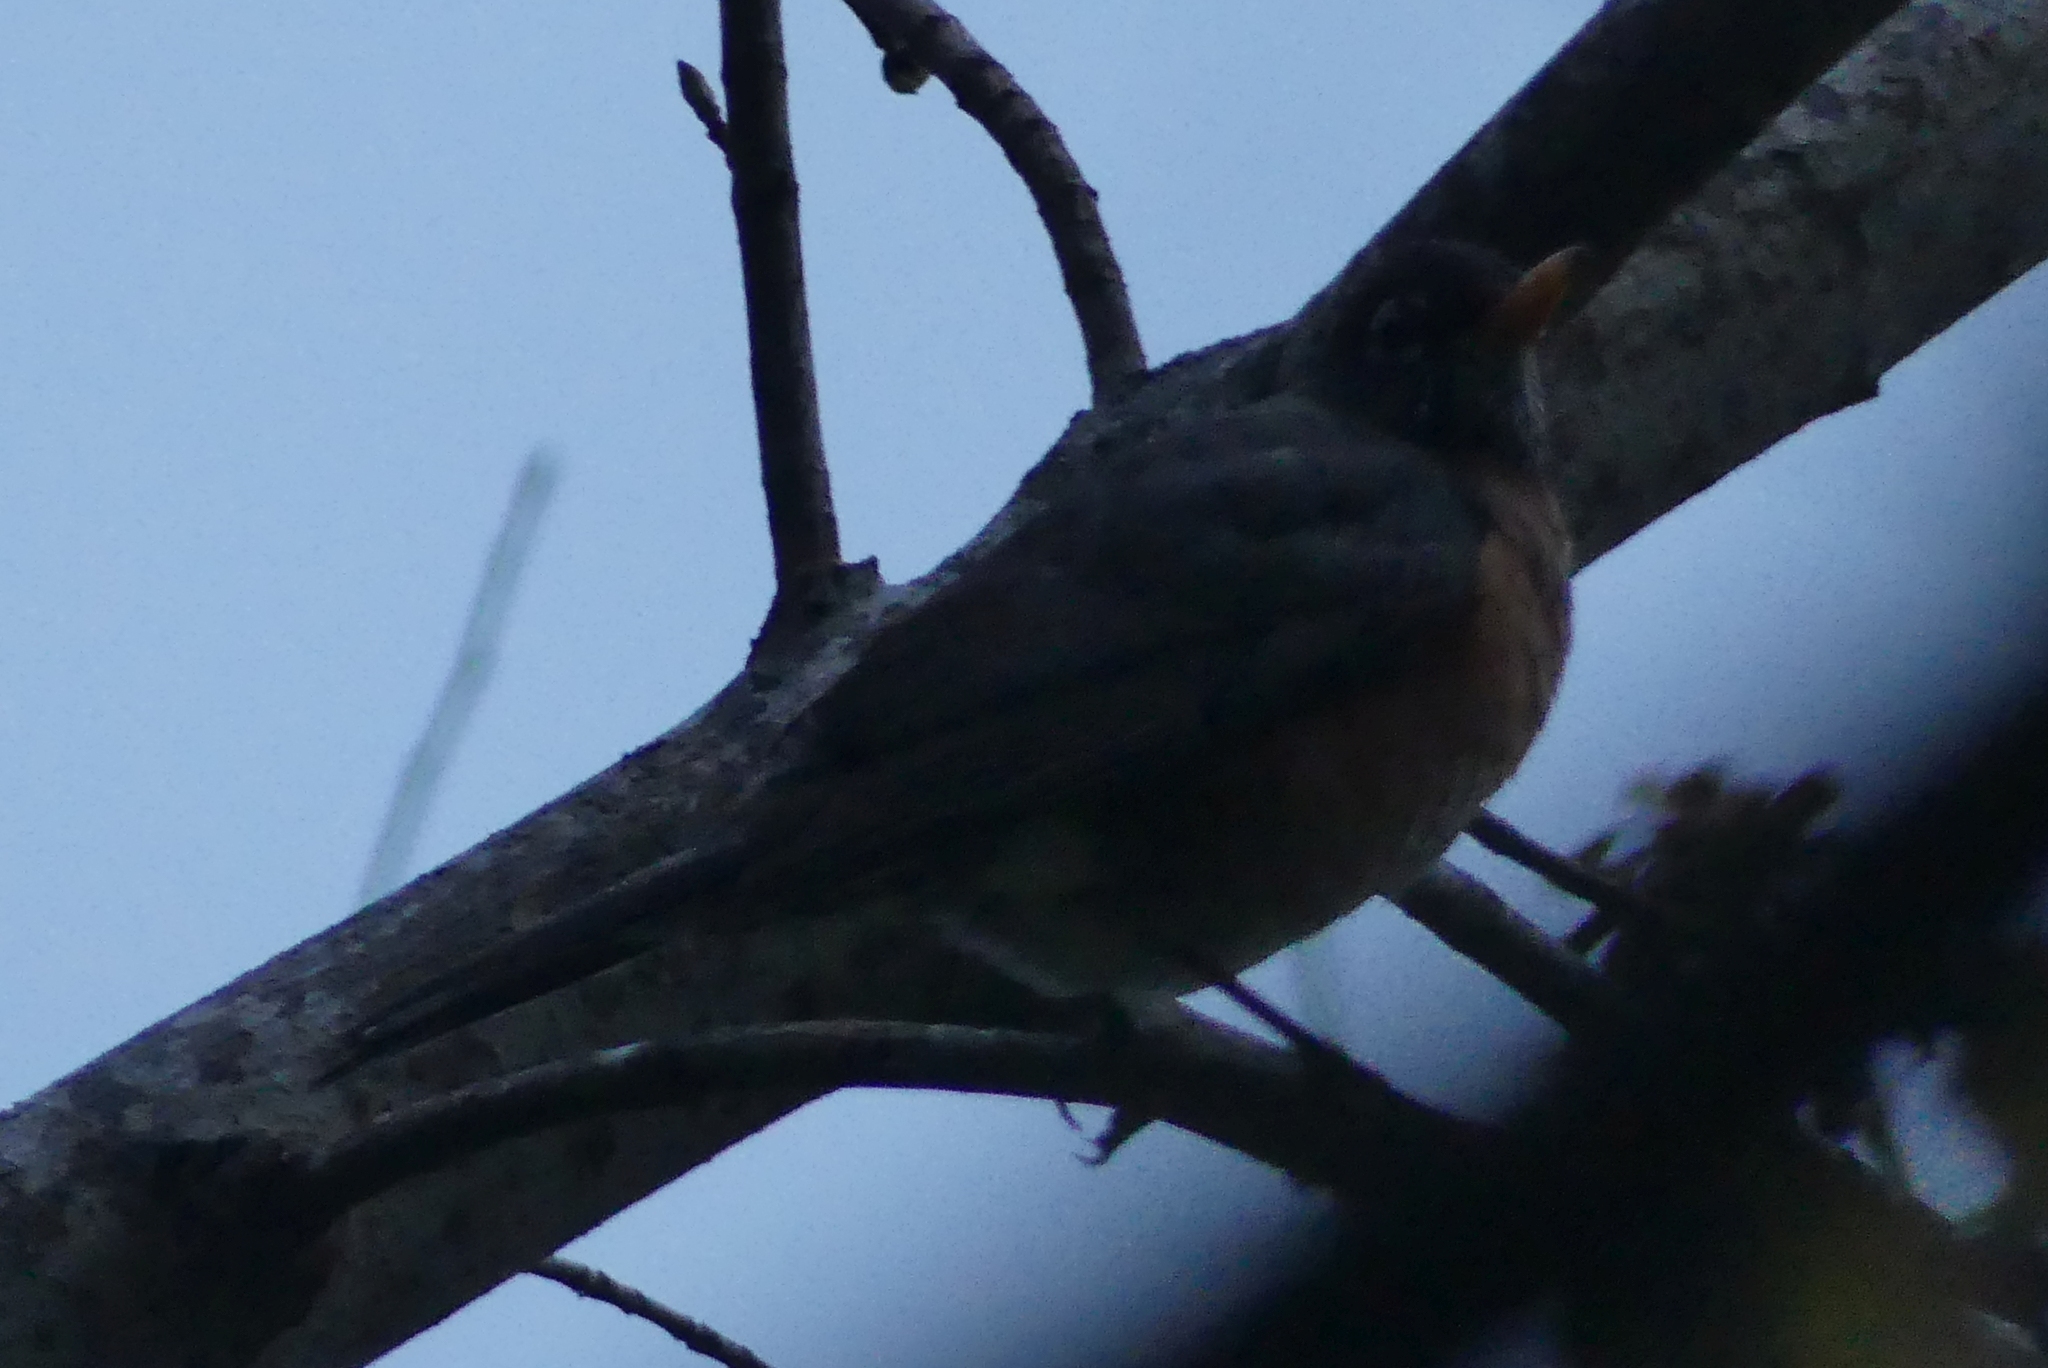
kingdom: Animalia
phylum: Chordata
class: Aves
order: Passeriformes
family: Turdidae
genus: Turdus
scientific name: Turdus migratorius
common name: American robin
